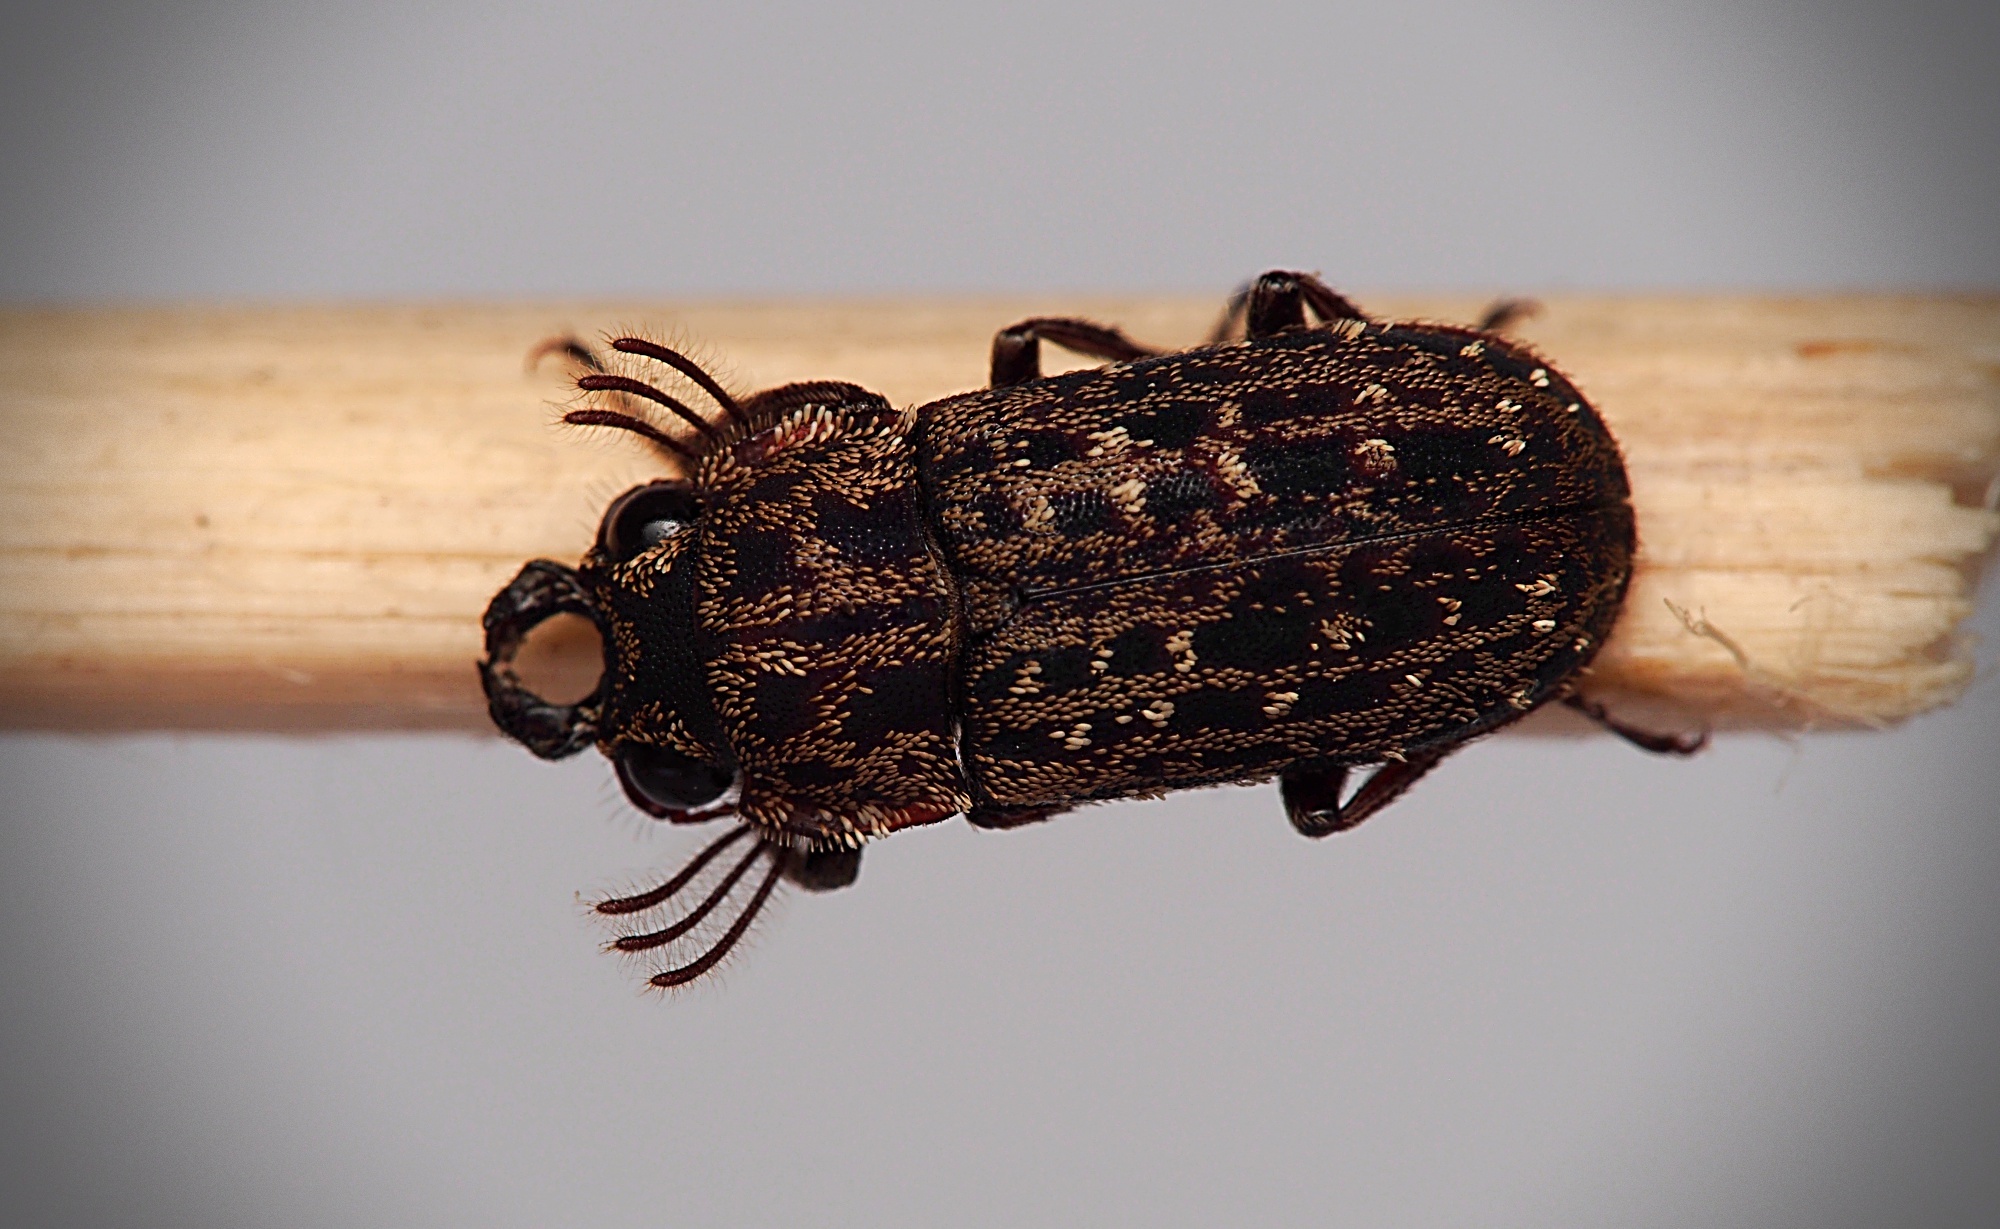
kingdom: Animalia
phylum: Arthropoda
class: Insecta
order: Coleoptera
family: Lucanidae
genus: Mitophyllus
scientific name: Mitophyllus arcuatus
